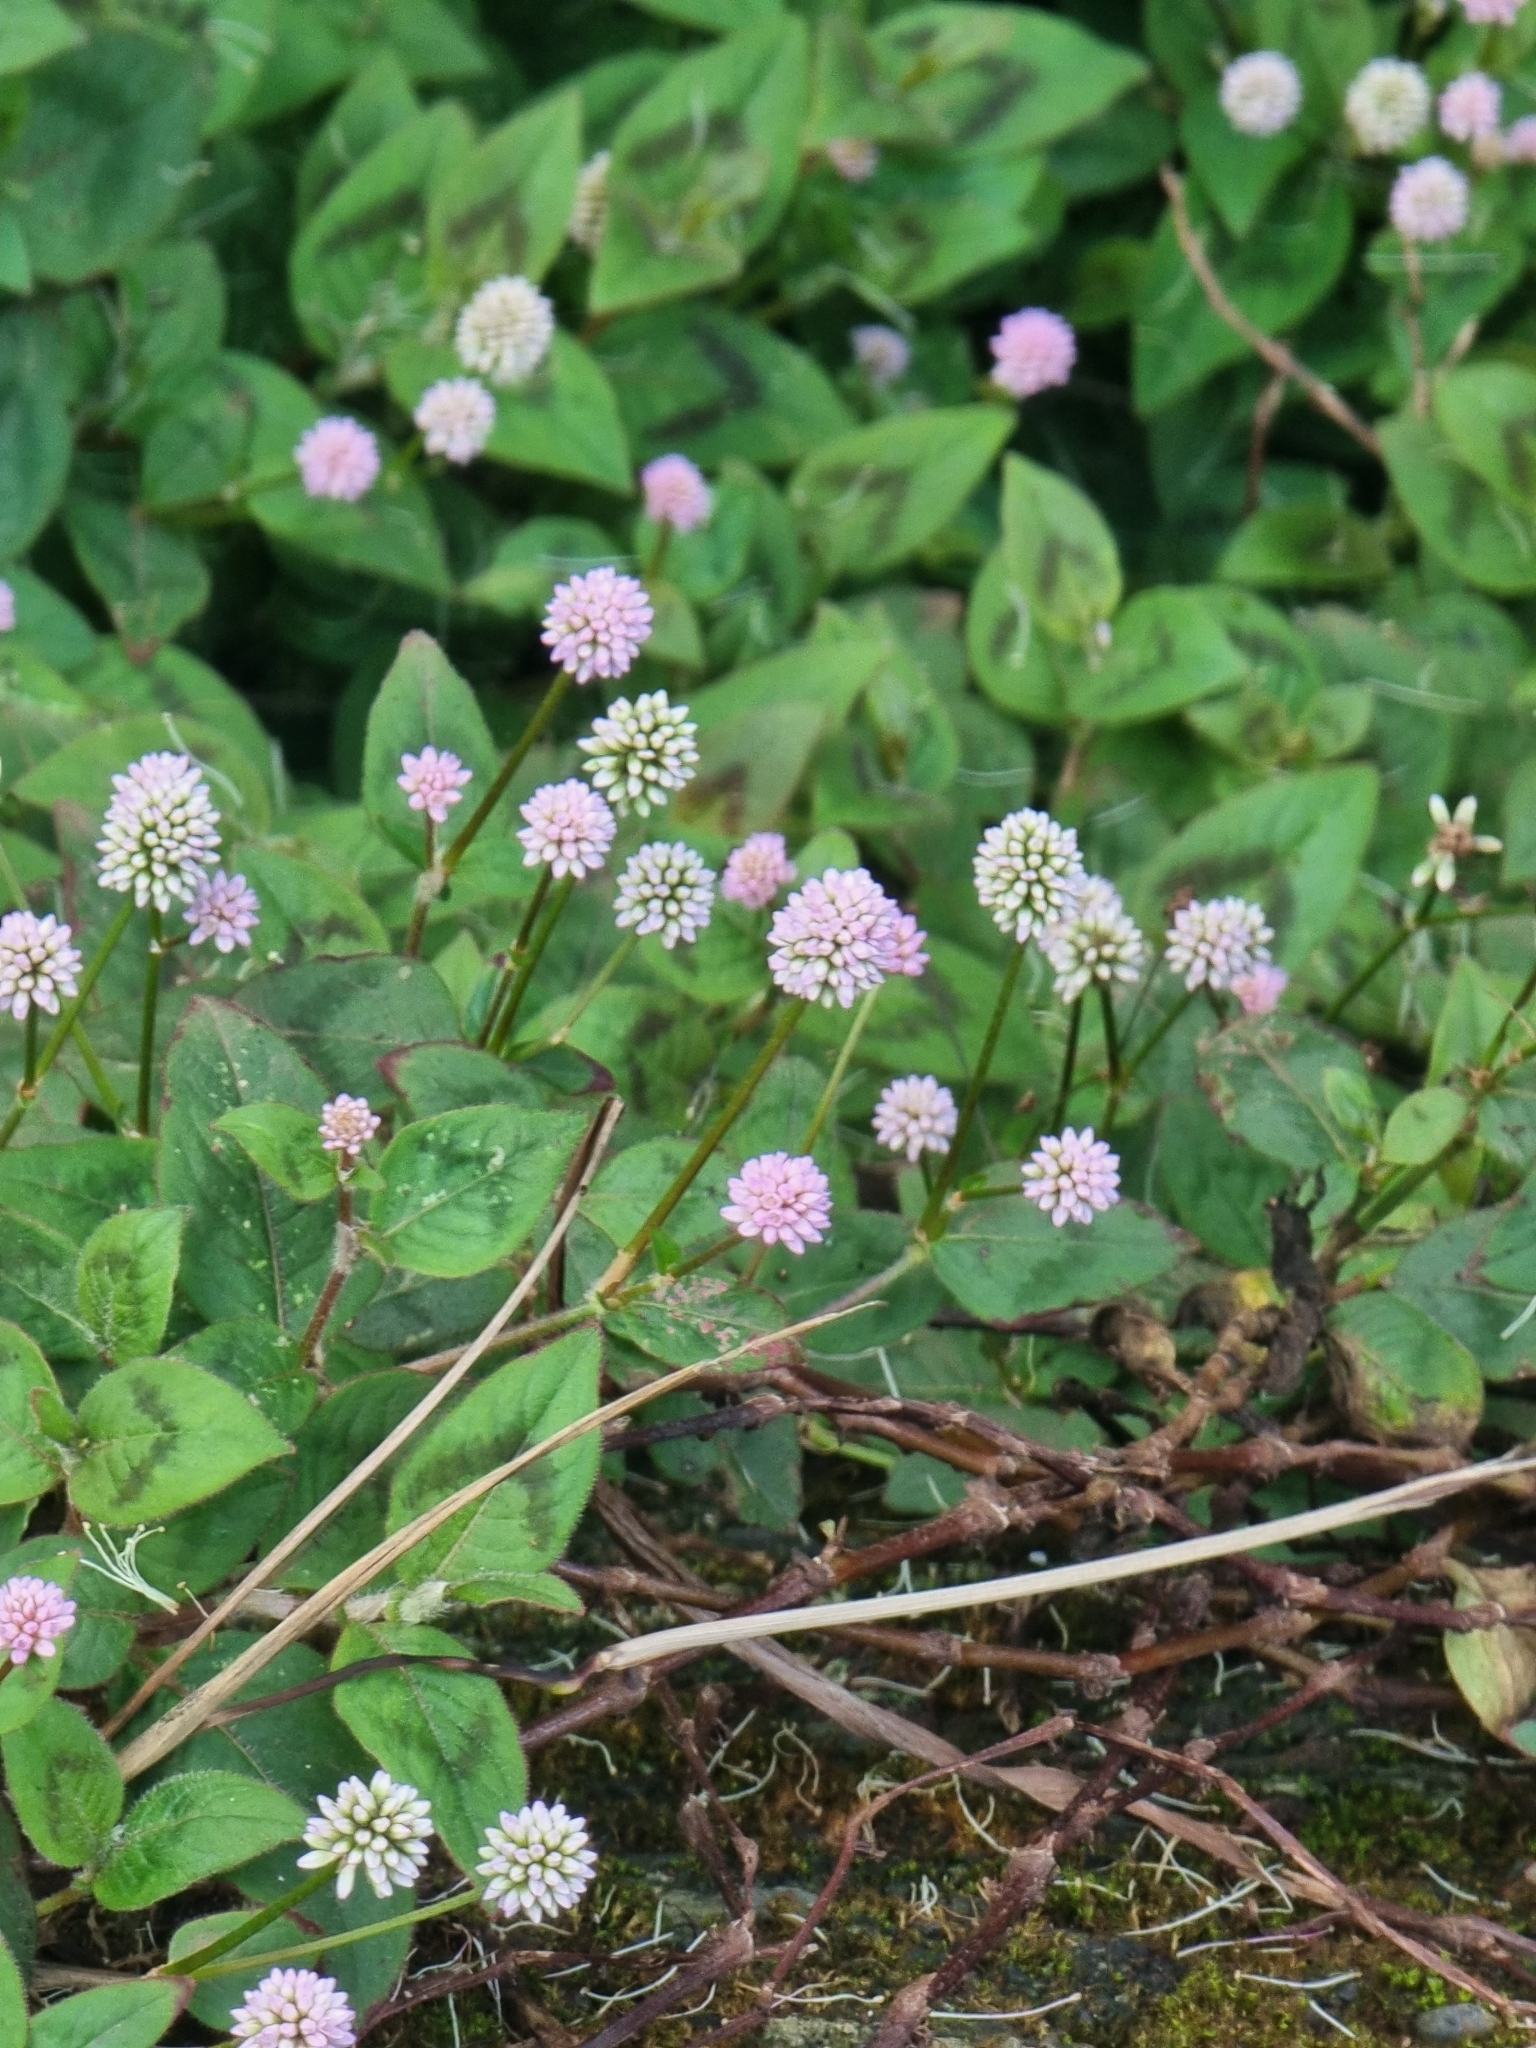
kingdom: Plantae
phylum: Tracheophyta
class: Magnoliopsida
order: Caryophyllales
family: Polygonaceae
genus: Persicaria
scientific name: Persicaria capitata
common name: Pinkhead smartweed
